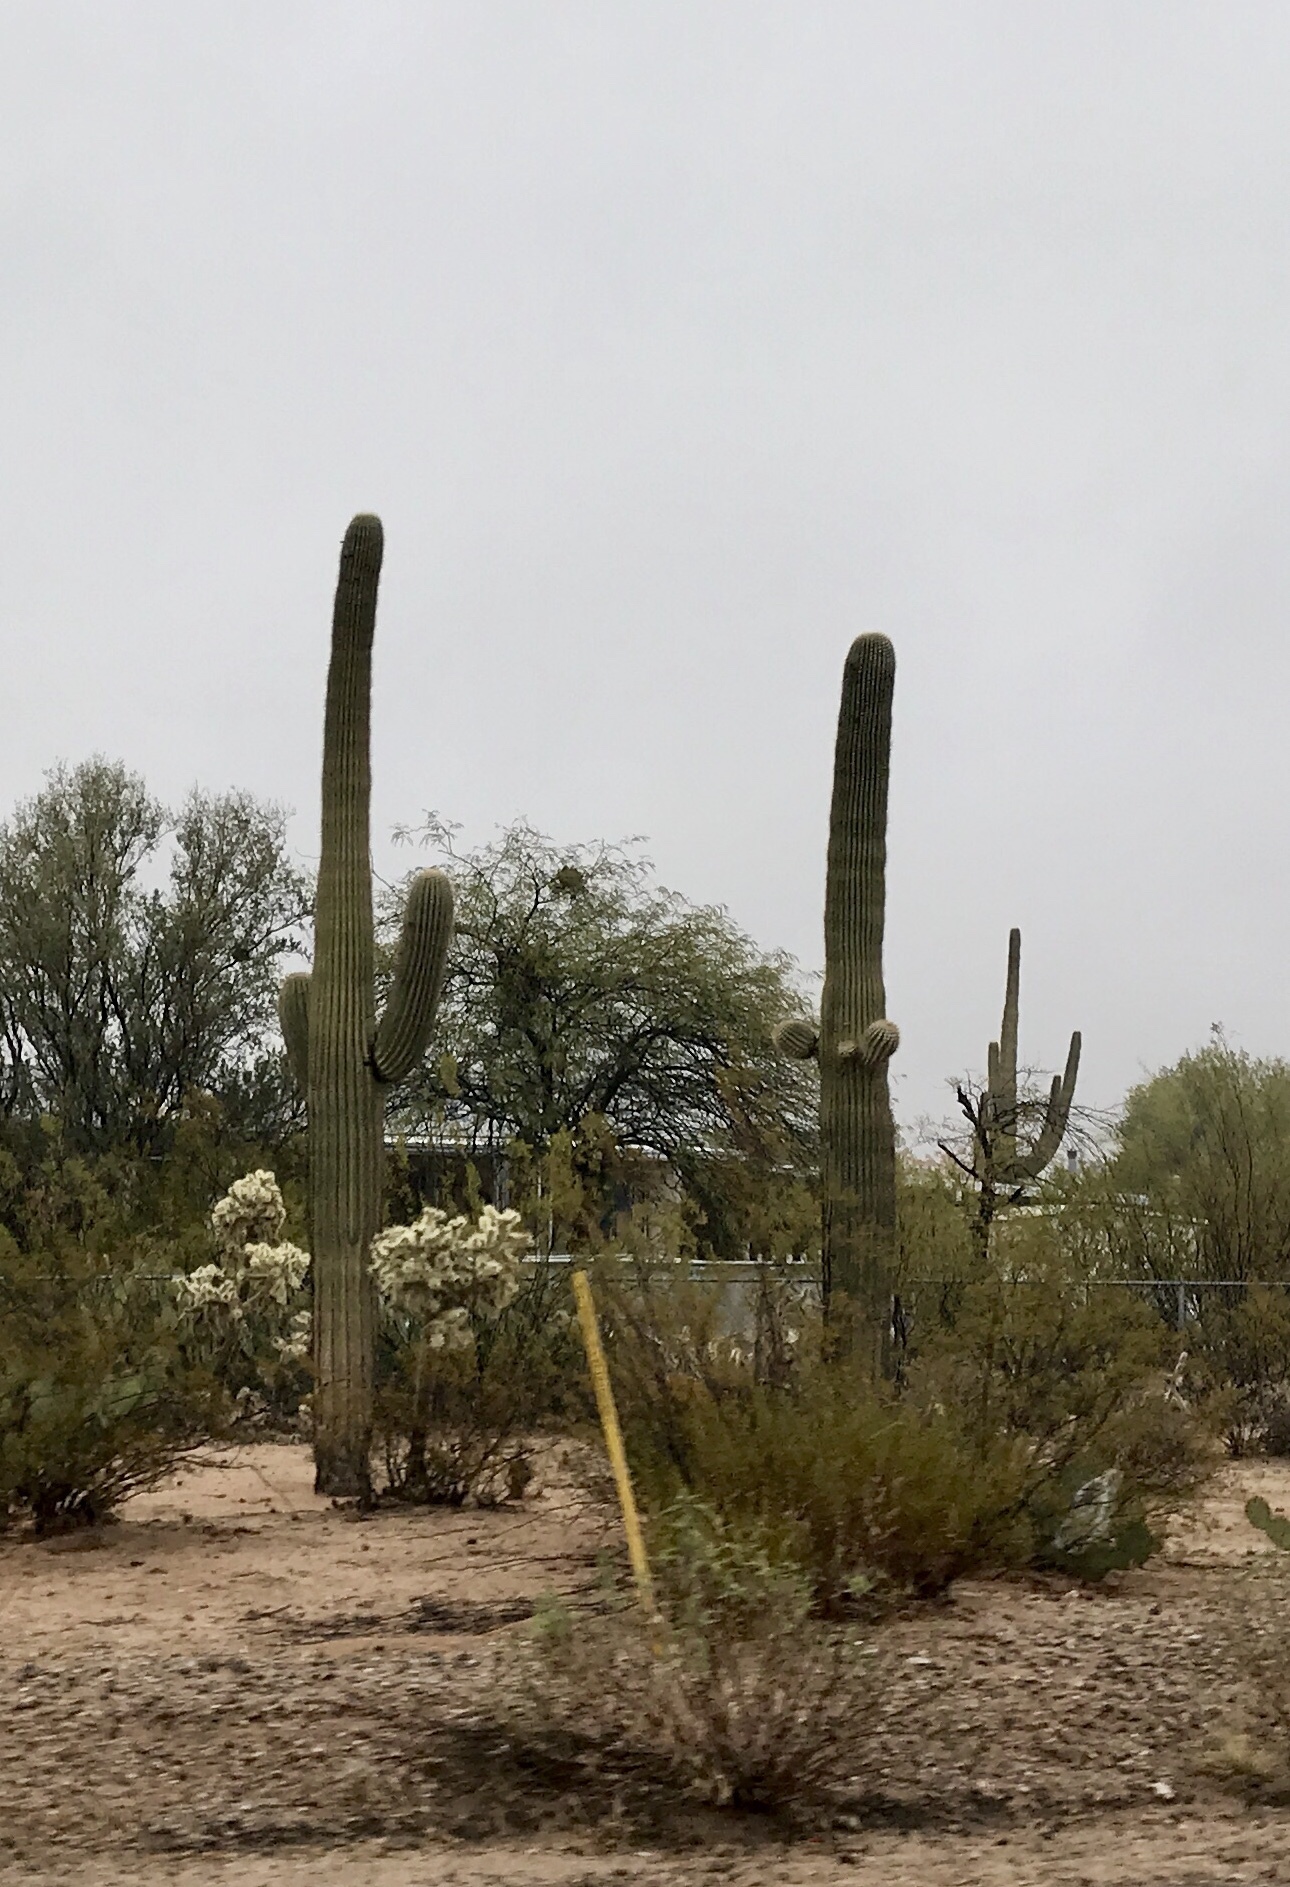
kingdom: Plantae
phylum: Tracheophyta
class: Magnoliopsida
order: Caryophyllales
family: Cactaceae
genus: Carnegiea
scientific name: Carnegiea gigantea
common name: Saguaro
